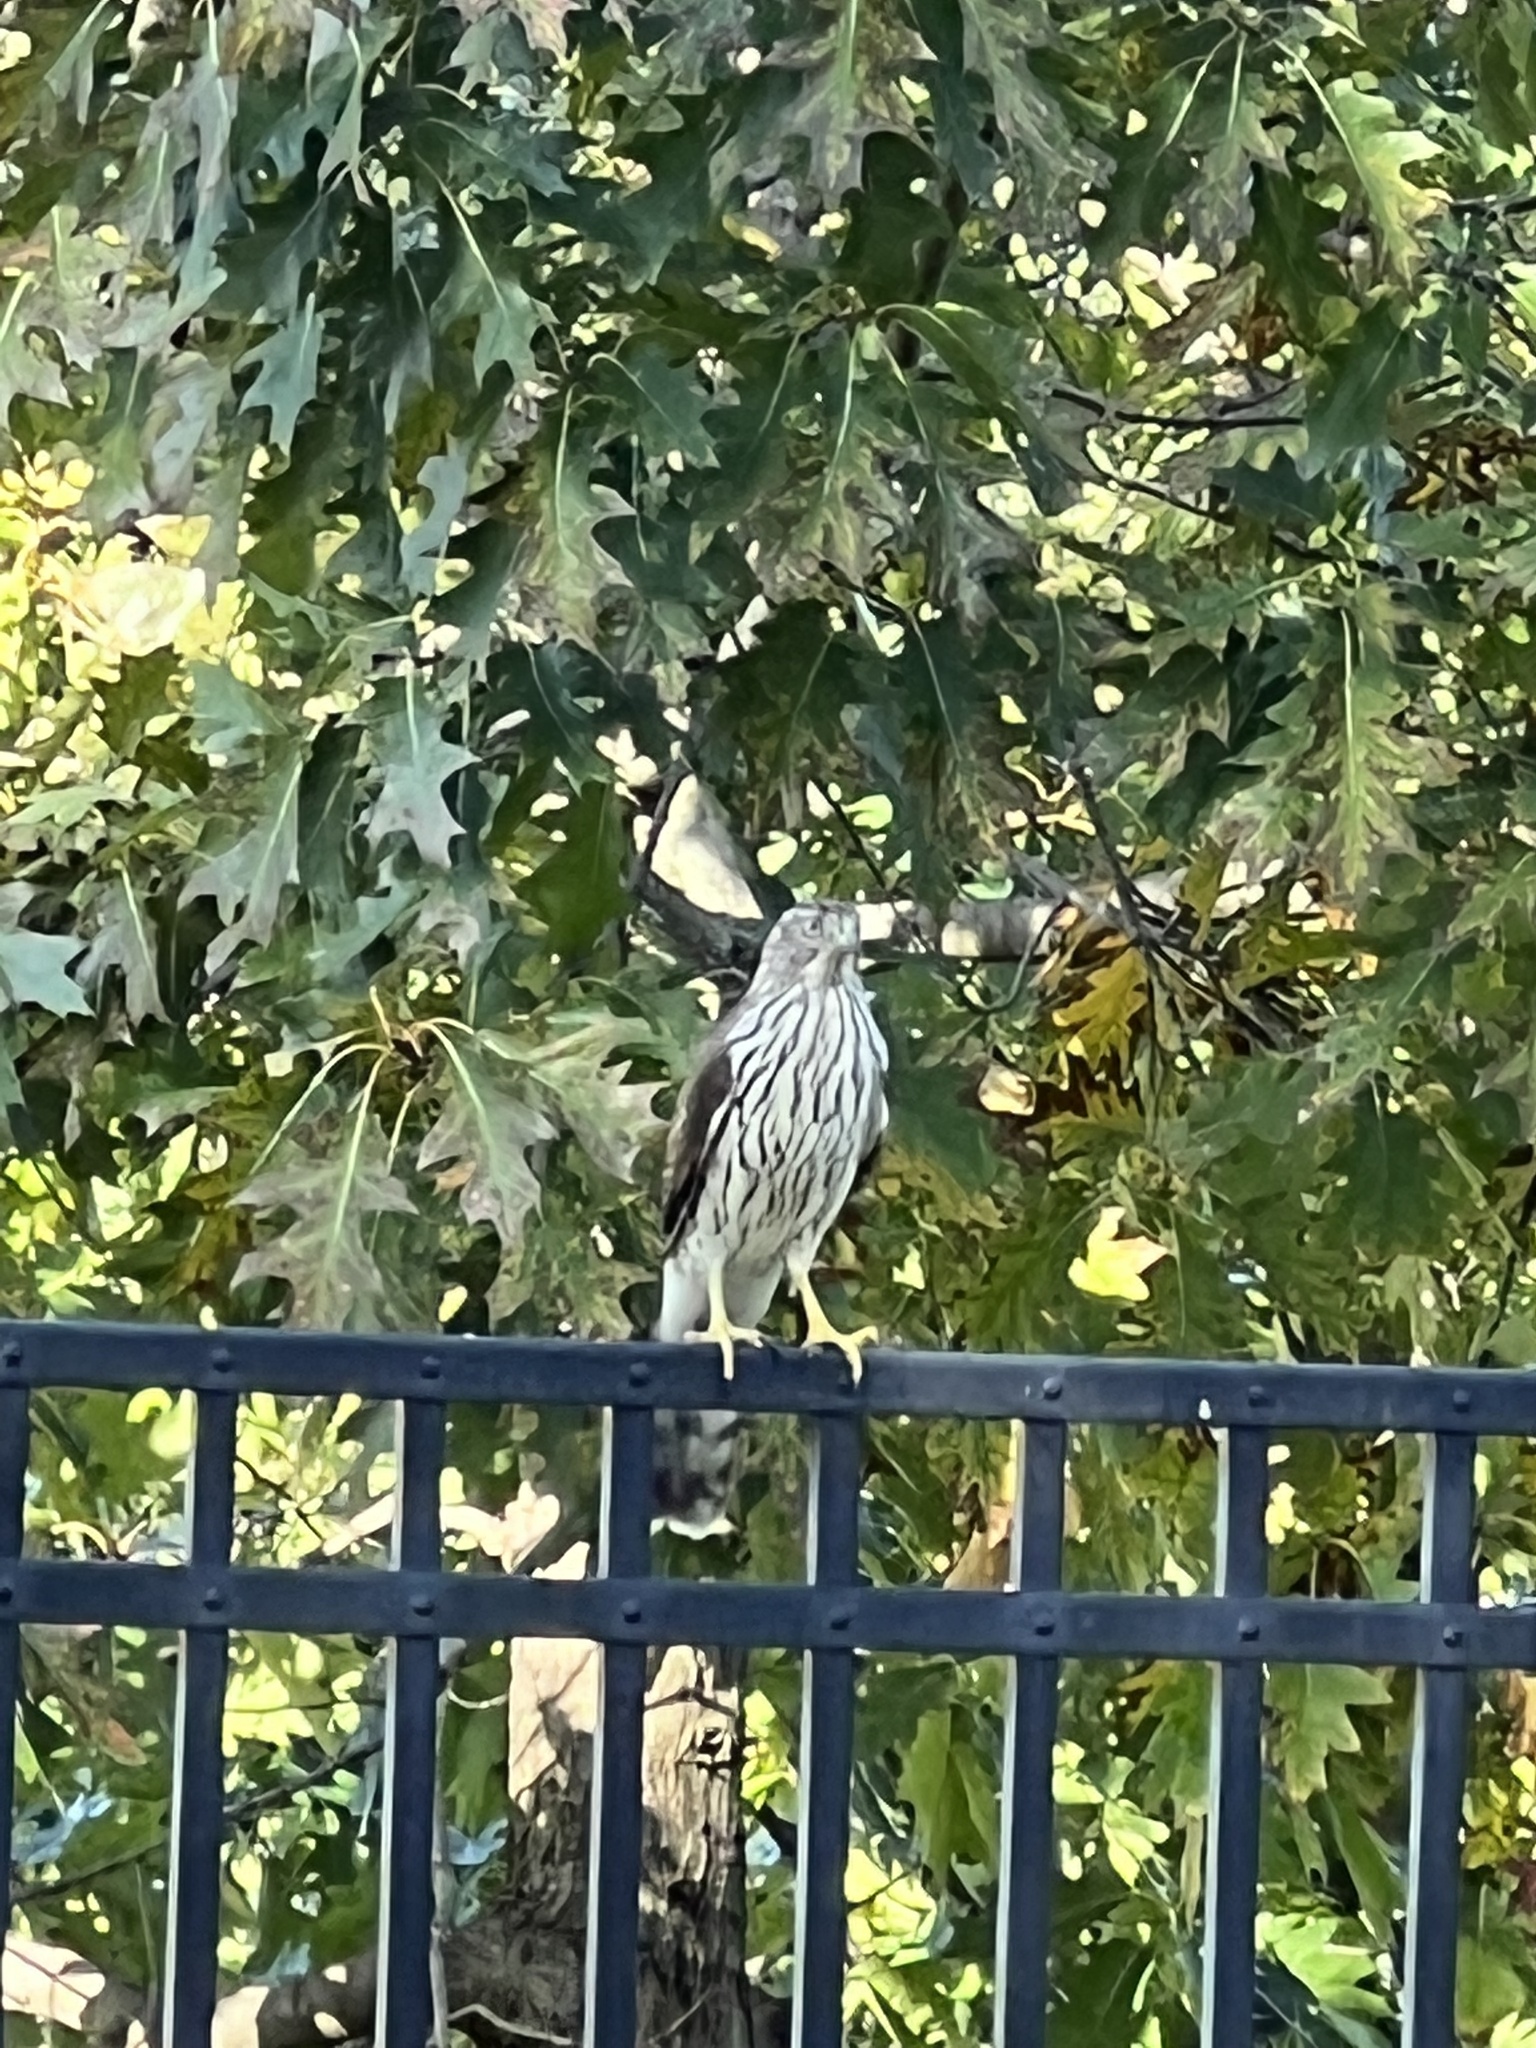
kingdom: Animalia
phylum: Chordata
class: Aves
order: Accipitriformes
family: Accipitridae
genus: Accipiter
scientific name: Accipiter cooperii
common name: Cooper's hawk
